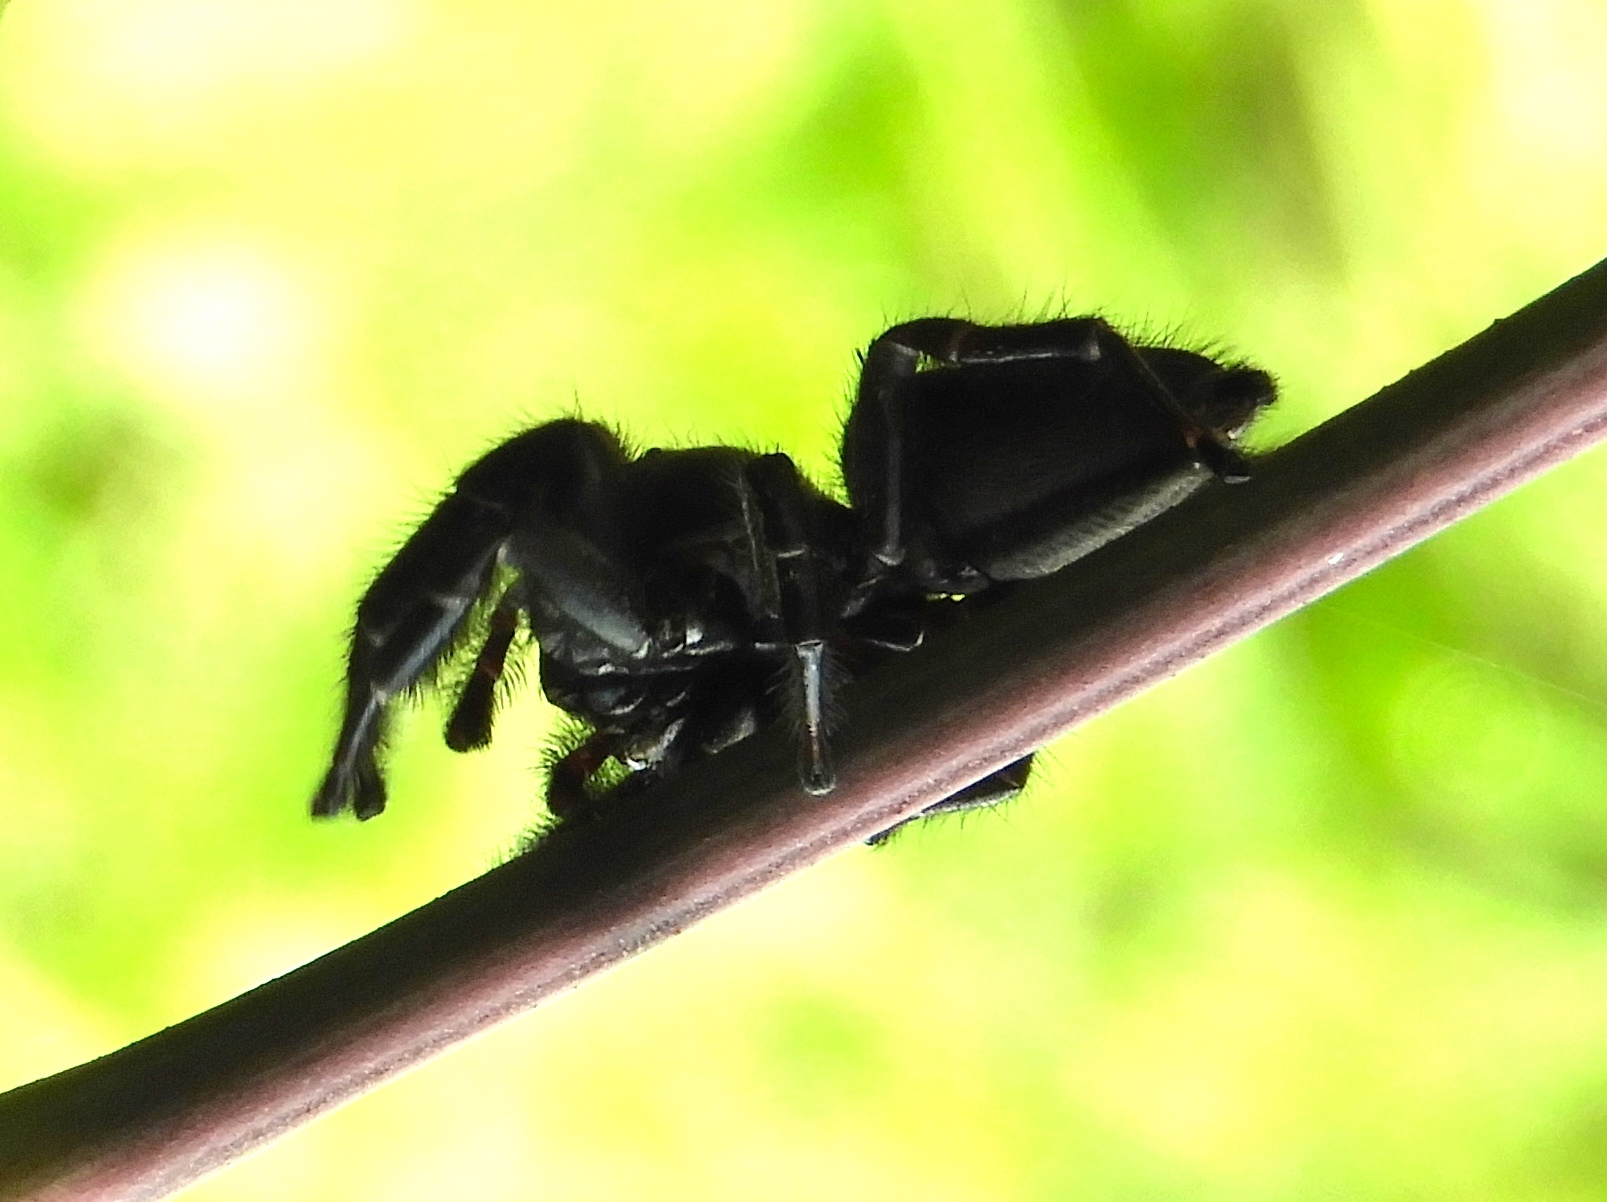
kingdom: Animalia
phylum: Arthropoda
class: Arachnida
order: Araneae
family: Salticidae
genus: Paraphidippus
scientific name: Paraphidippus
